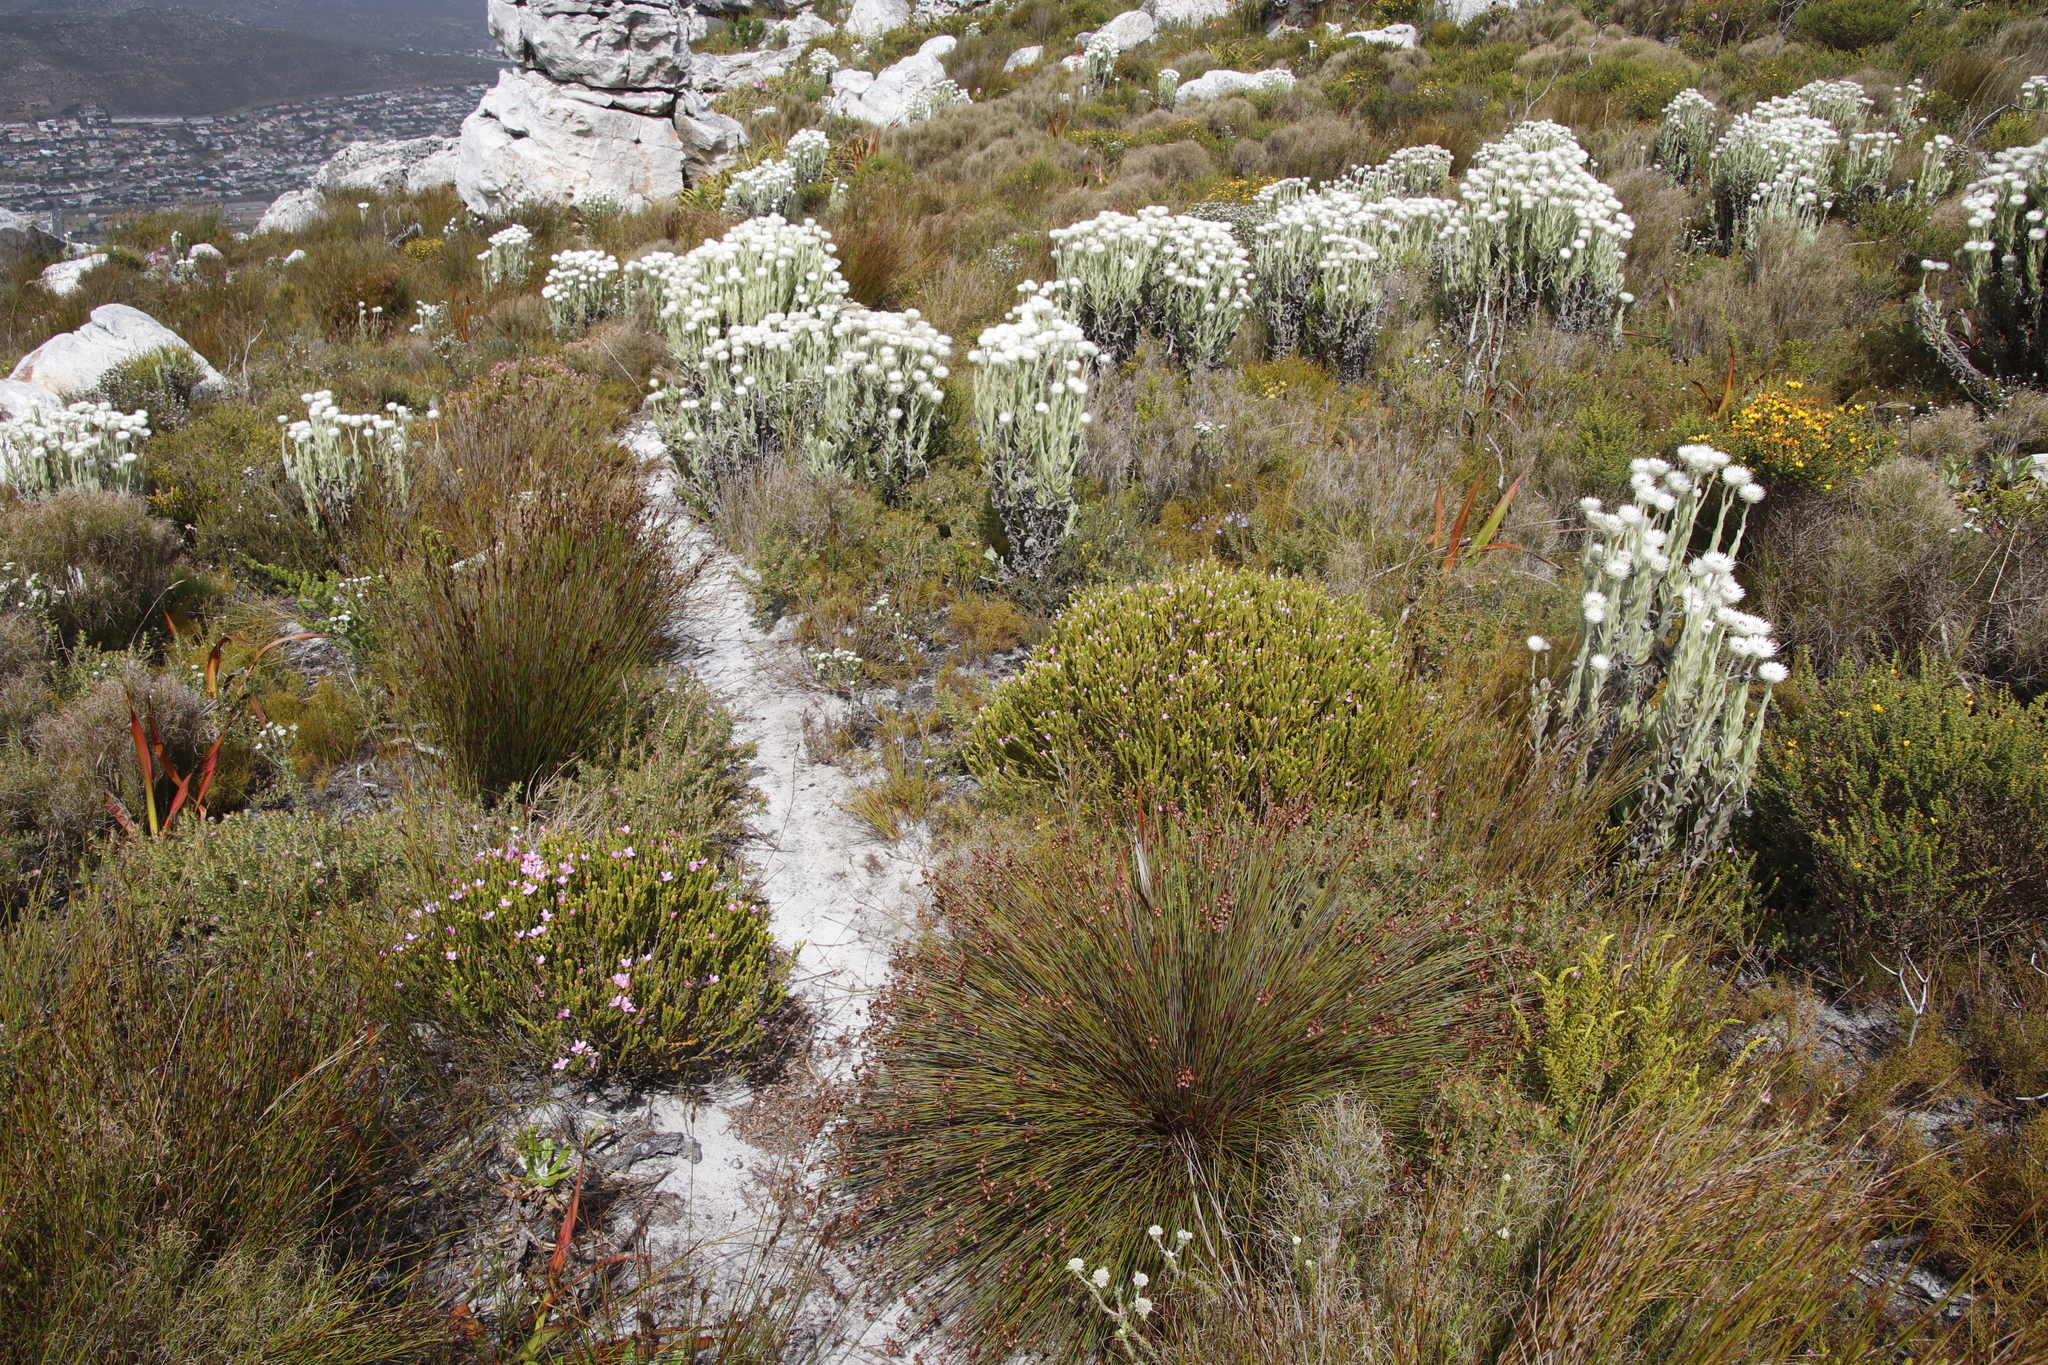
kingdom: Plantae
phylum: Tracheophyta
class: Magnoliopsida
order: Malvales
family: Thymelaeaceae
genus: Lachnaea
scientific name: Lachnaea grandiflora
